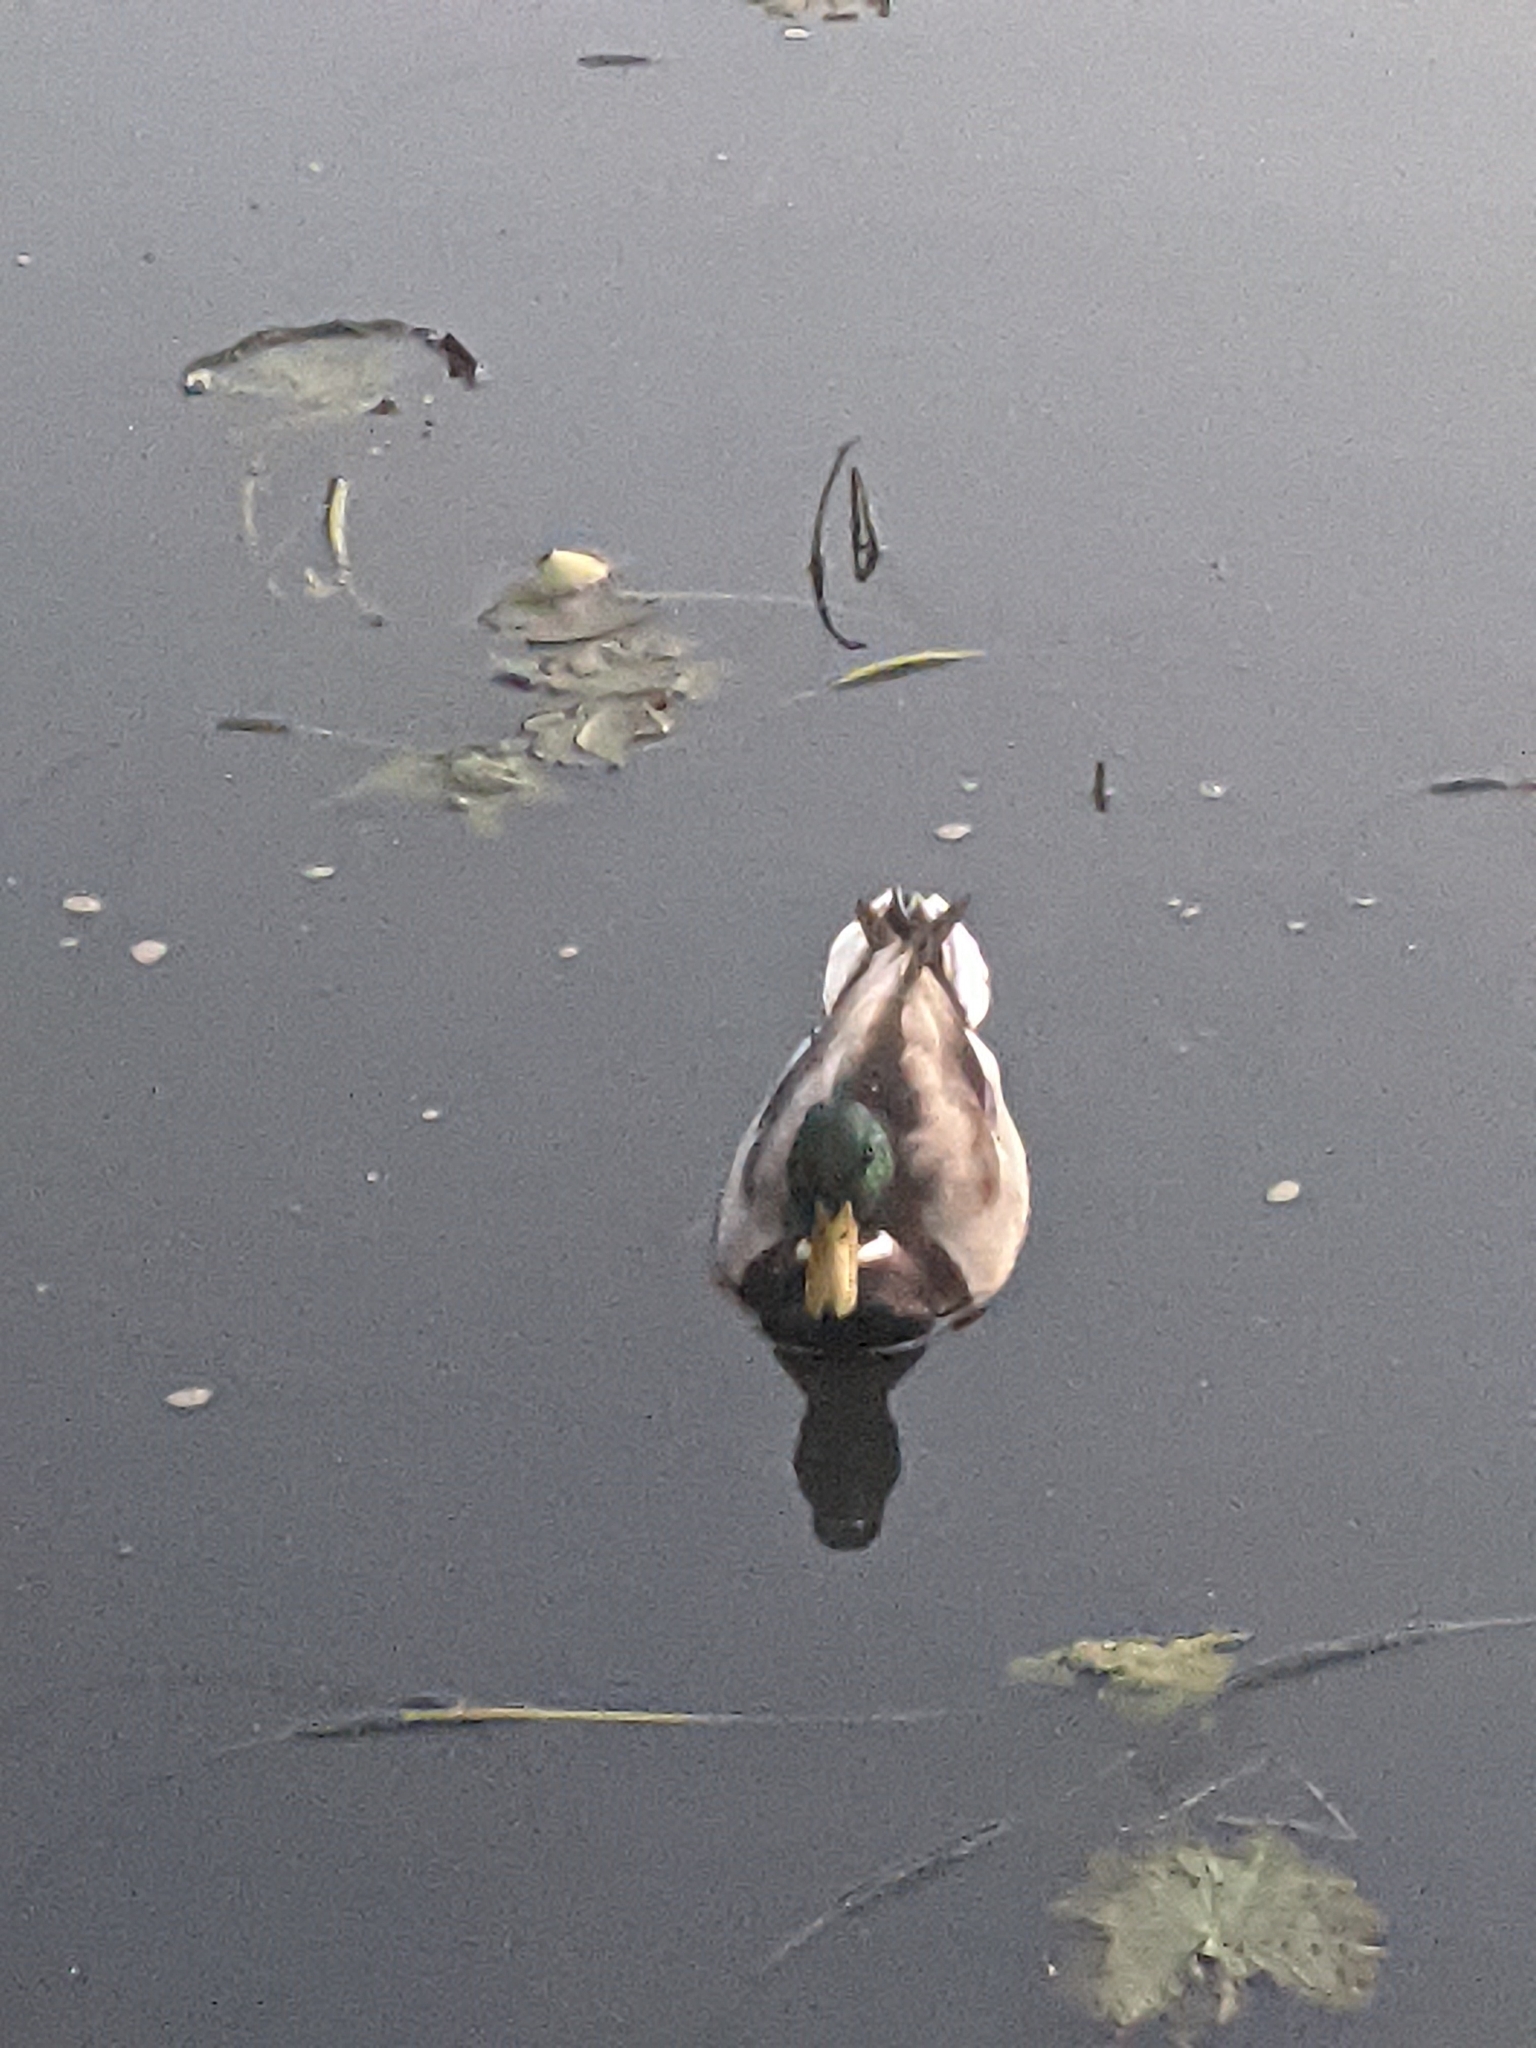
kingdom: Animalia
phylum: Chordata
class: Aves
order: Anseriformes
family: Anatidae
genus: Anas
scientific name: Anas platyrhynchos
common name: Mallard
